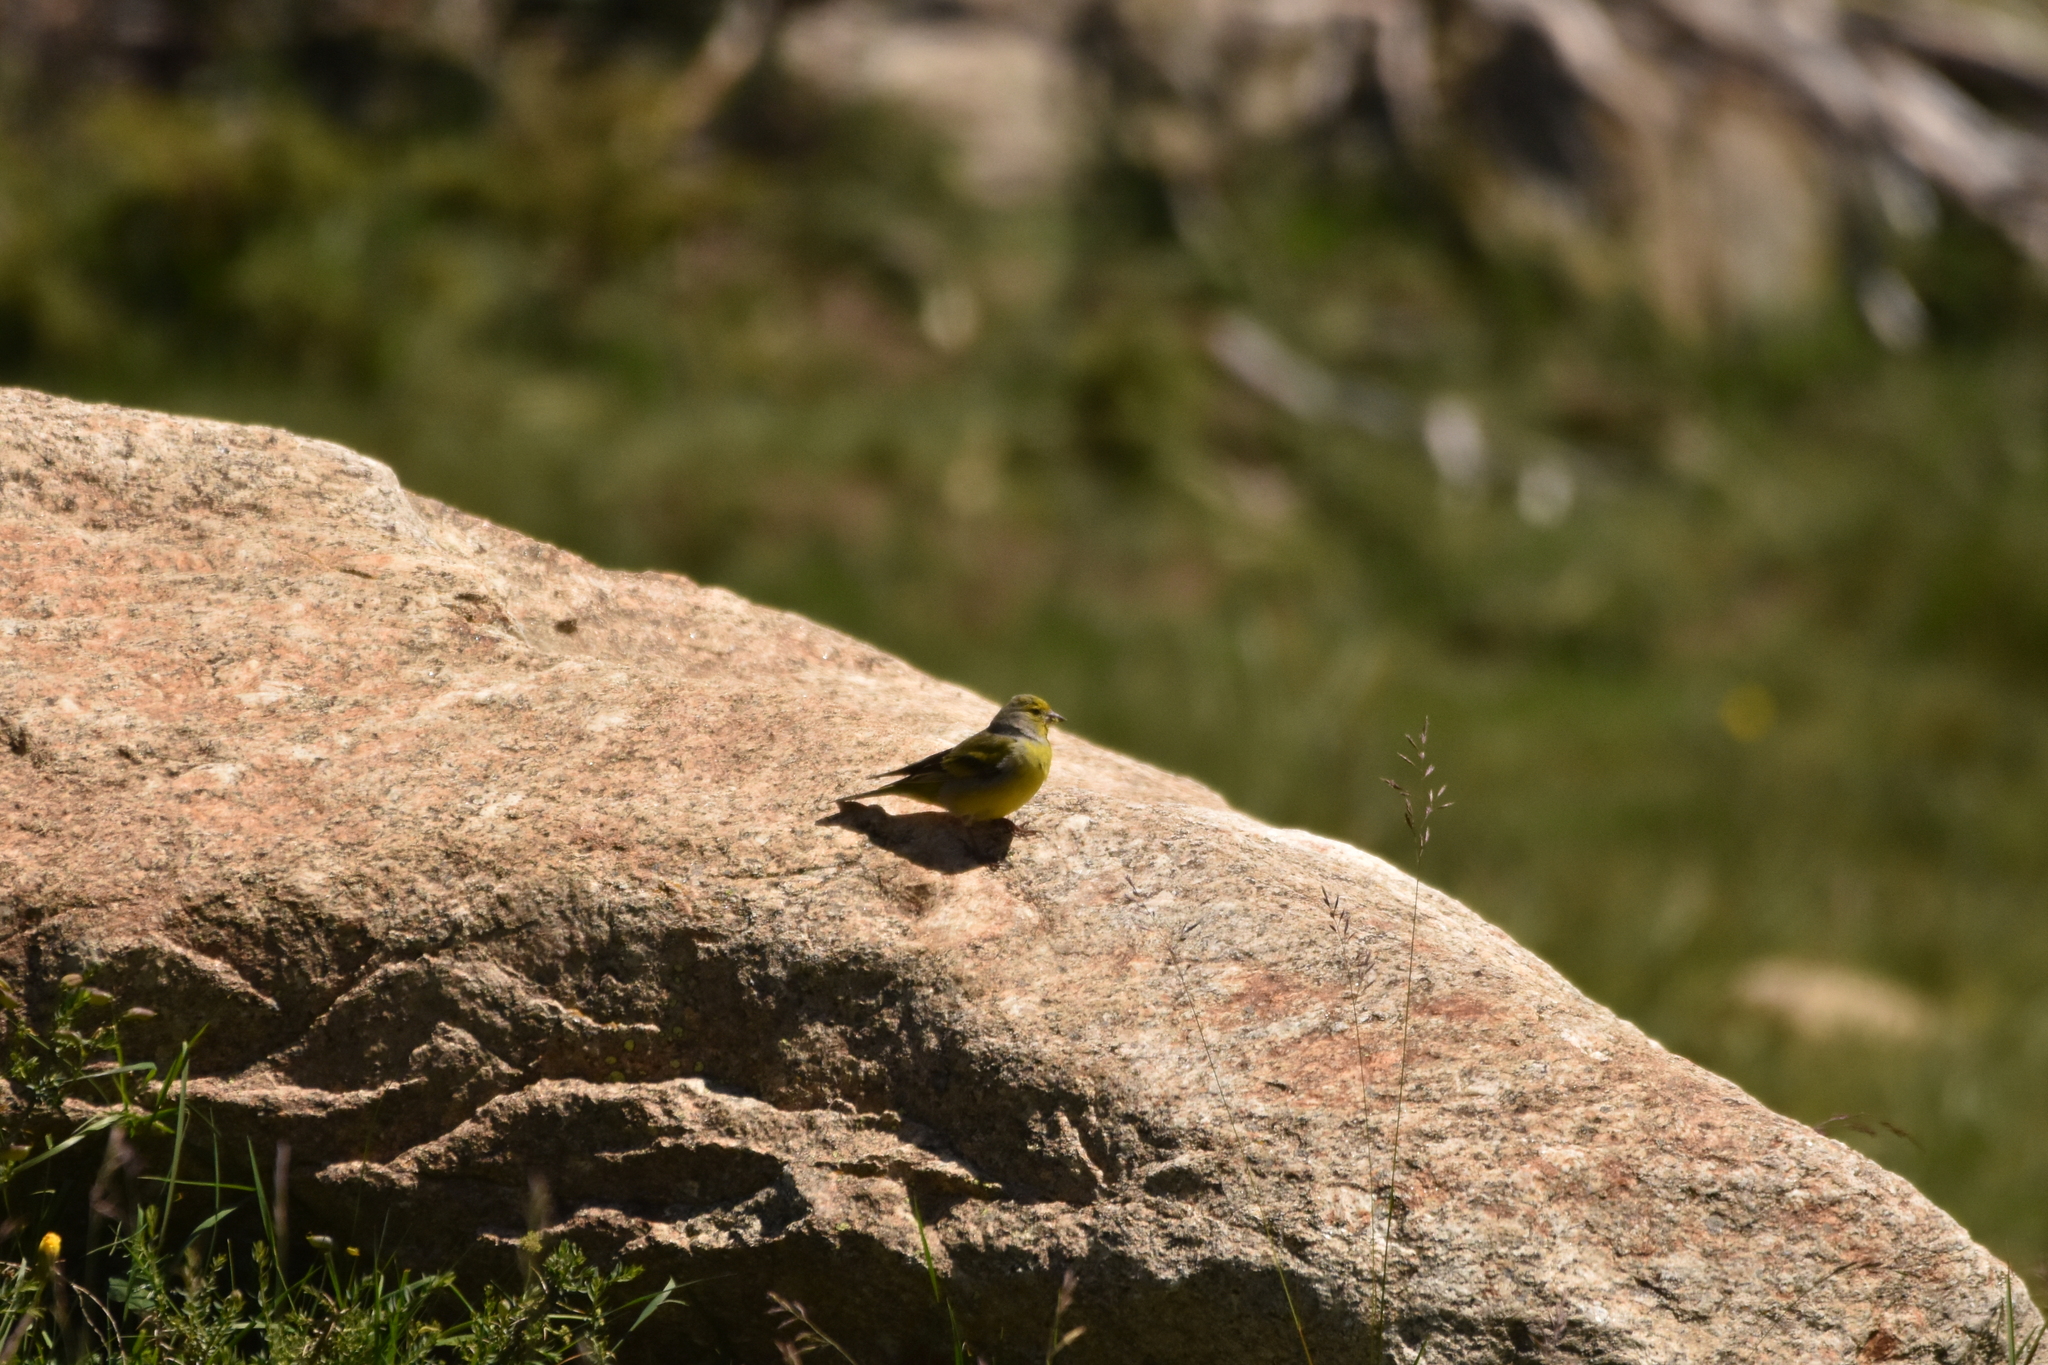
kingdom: Animalia
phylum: Chordata
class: Aves
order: Passeriformes
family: Fringillidae
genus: Carduelis
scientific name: Carduelis citrinella
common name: Citril finch
